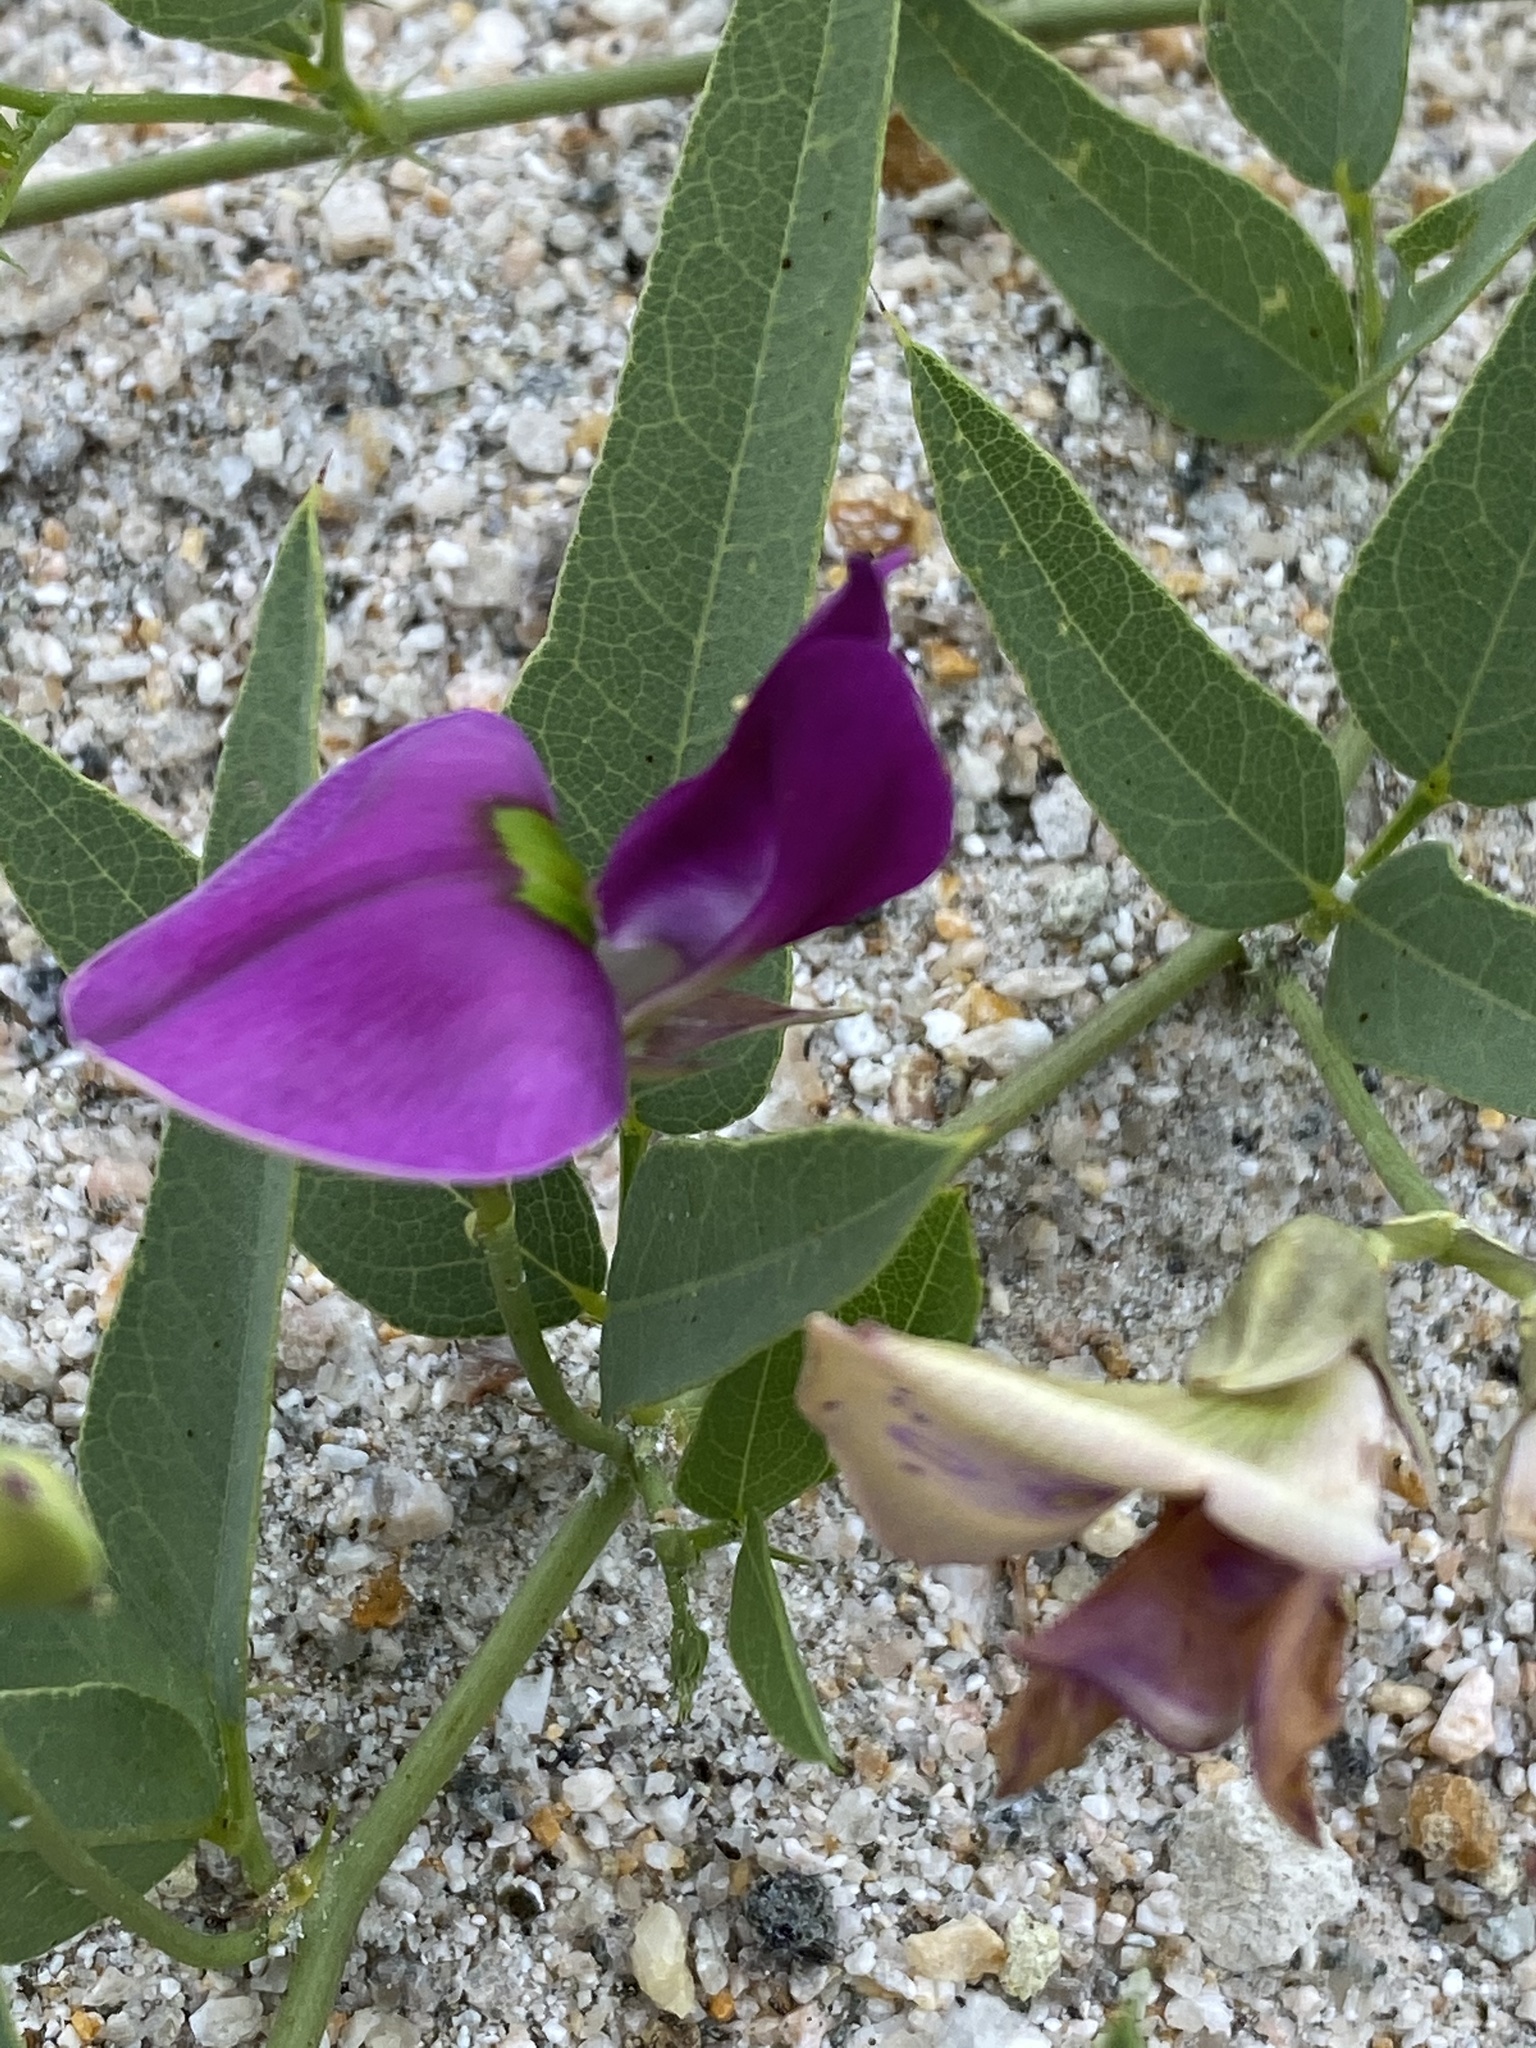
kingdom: Plantae
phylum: Tracheophyta
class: Magnoliopsida
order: Fabales
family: Fabaceae
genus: Otoptera
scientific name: Otoptera burchellii
